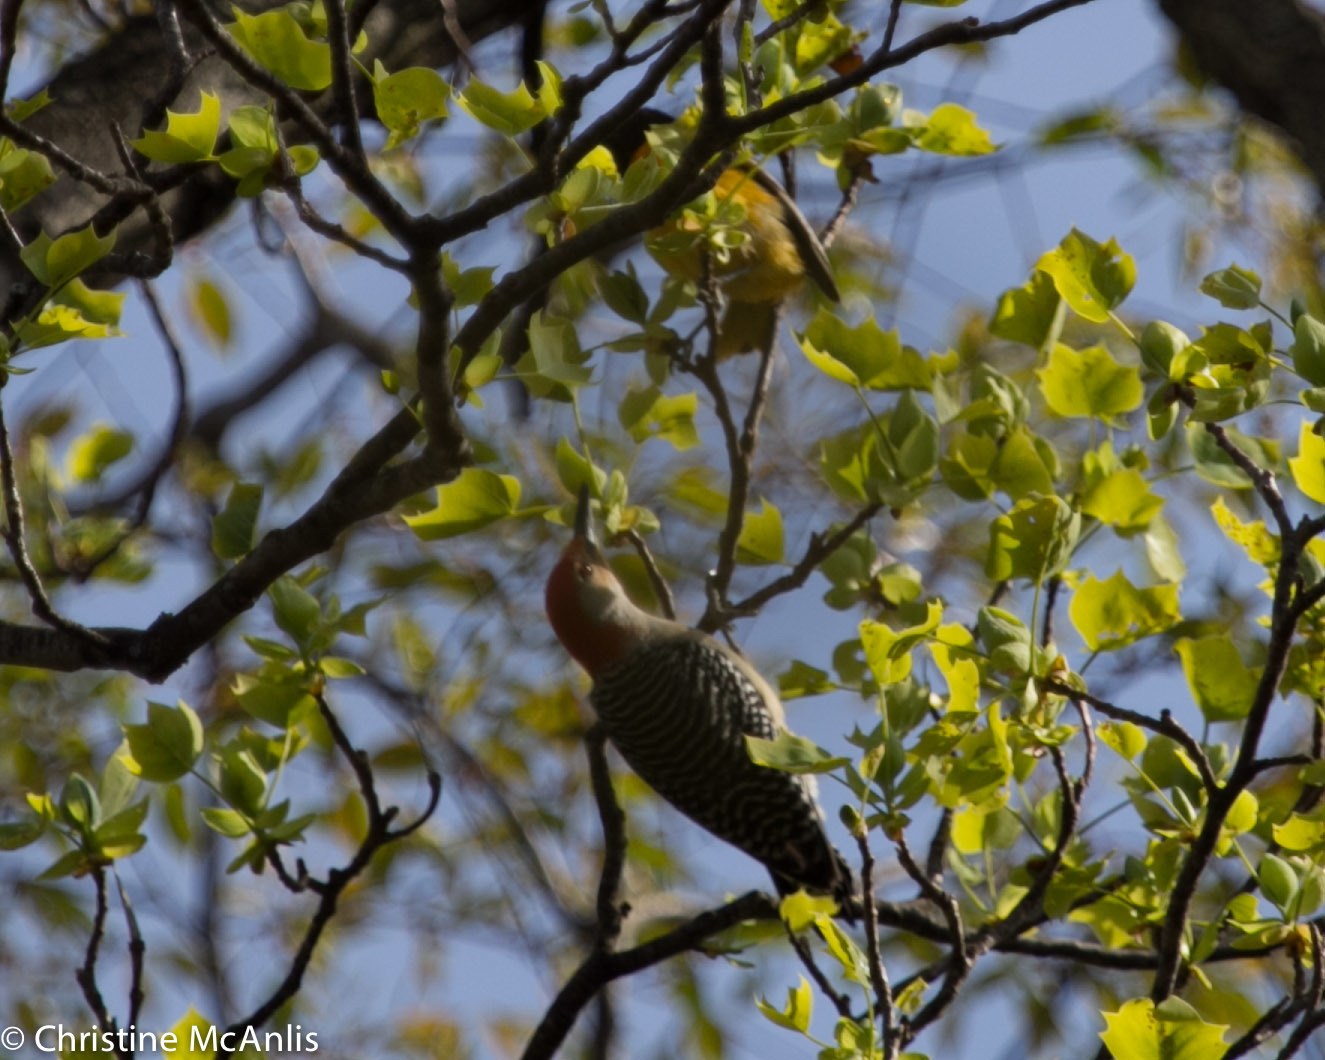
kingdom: Animalia
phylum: Chordata
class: Aves
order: Piciformes
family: Picidae
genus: Melanerpes
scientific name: Melanerpes carolinus
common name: Red-bellied woodpecker
